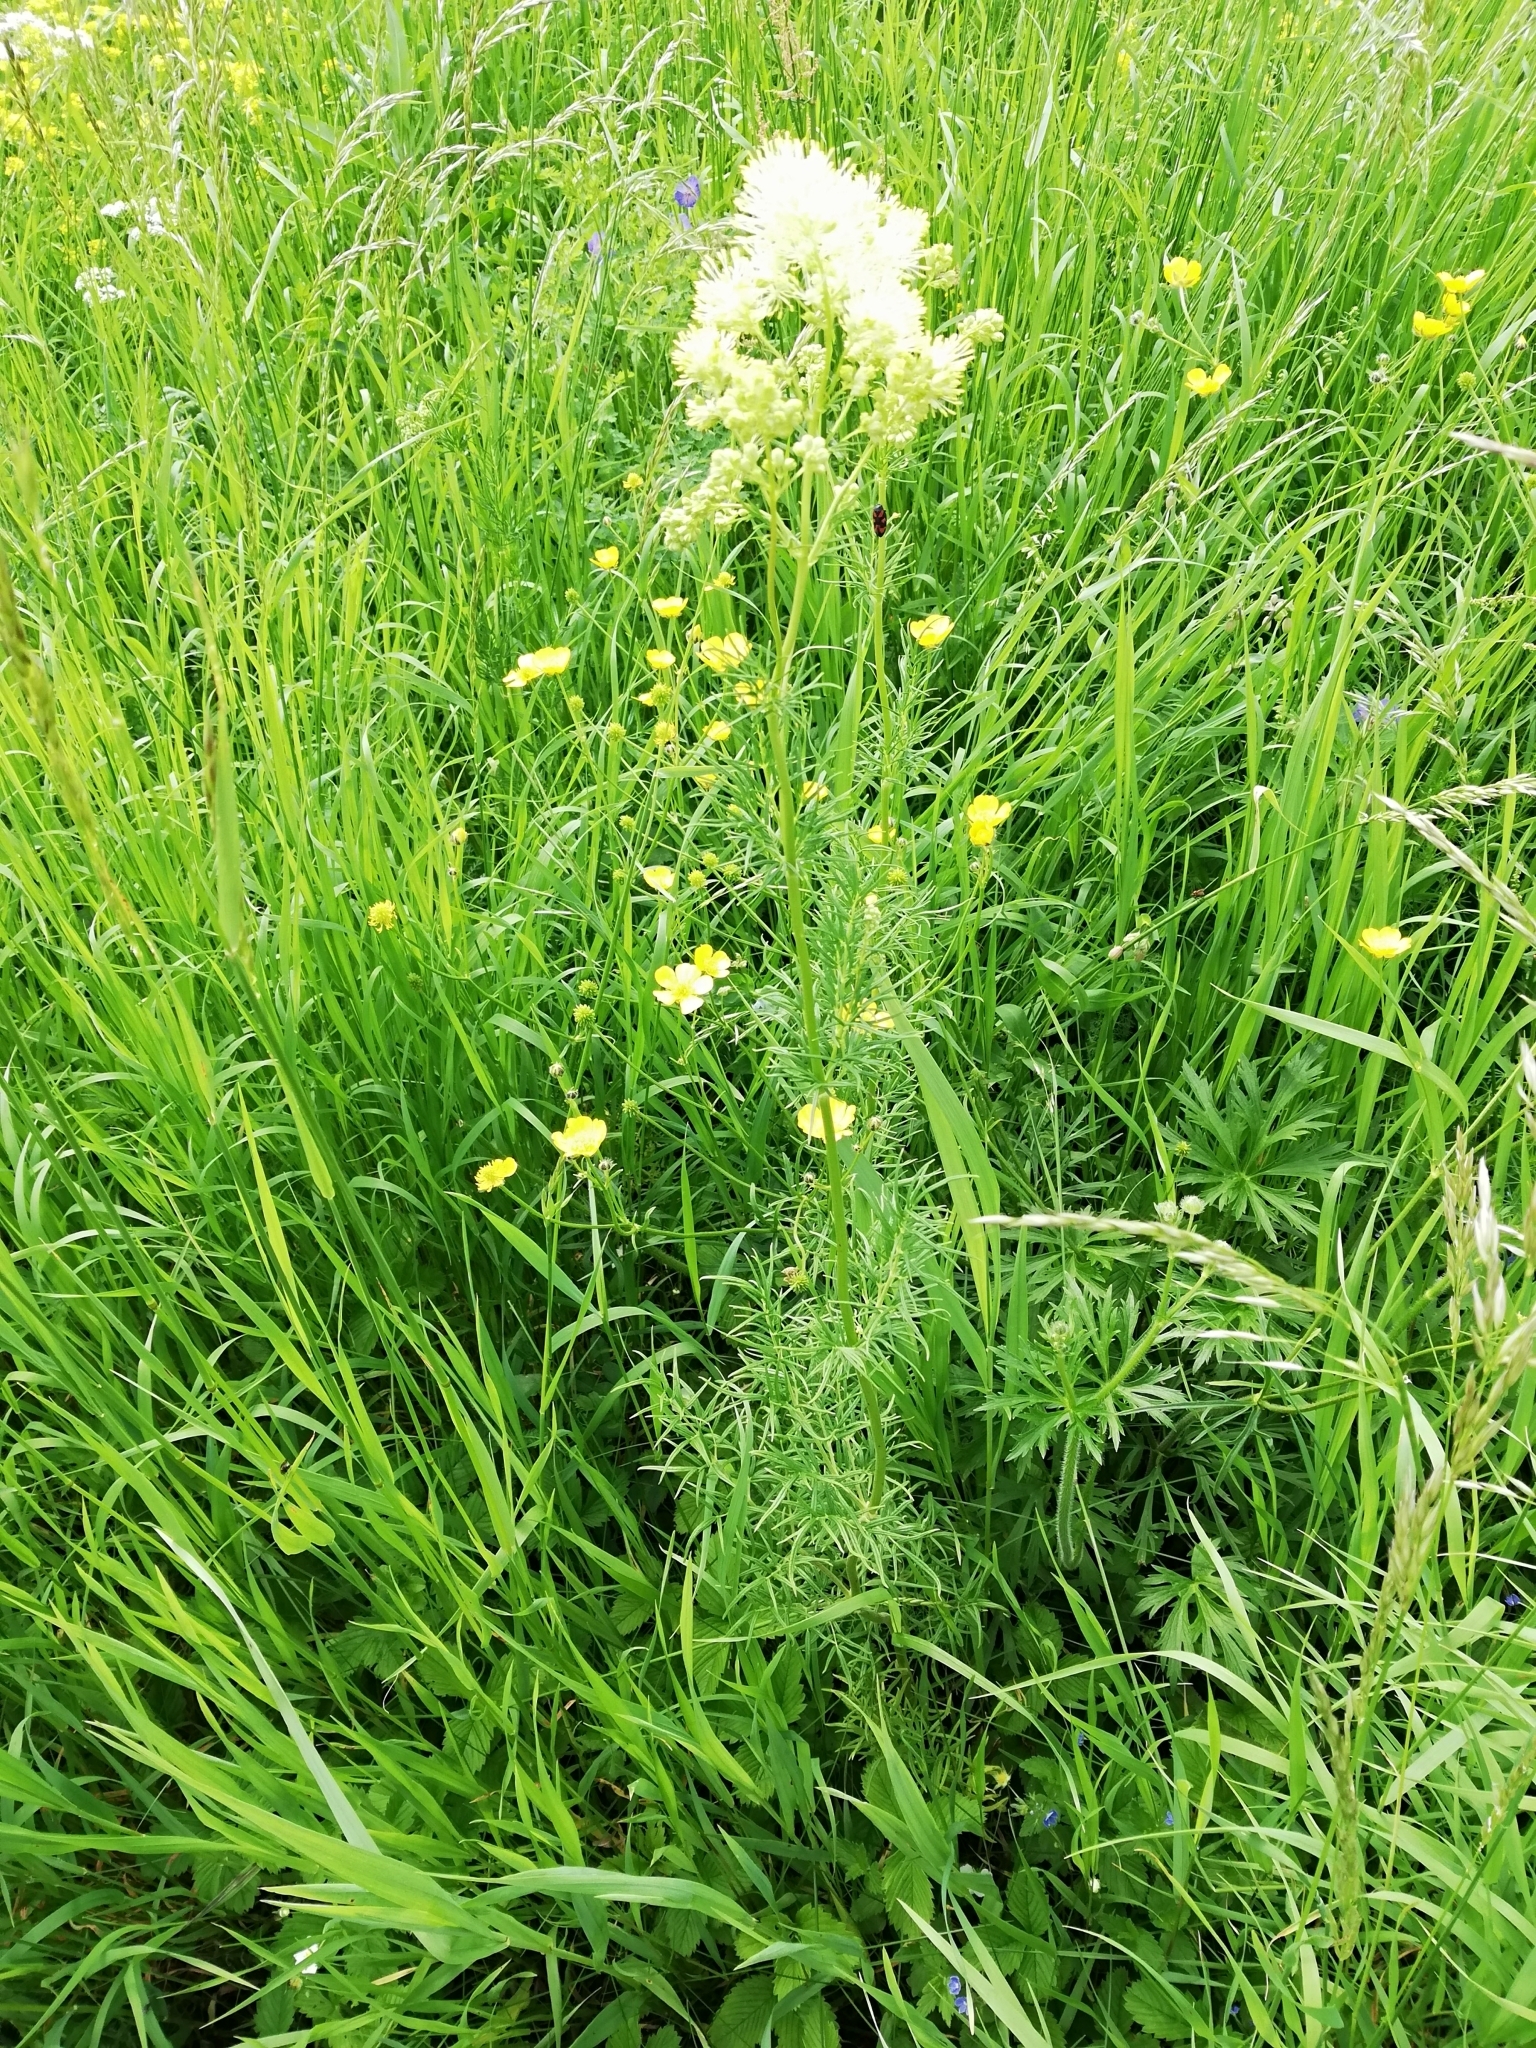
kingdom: Plantae
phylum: Tracheophyta
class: Magnoliopsida
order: Ranunculales
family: Ranunculaceae
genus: Thalictrum
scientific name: Thalictrum lucidum
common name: Shining meadow-rue
